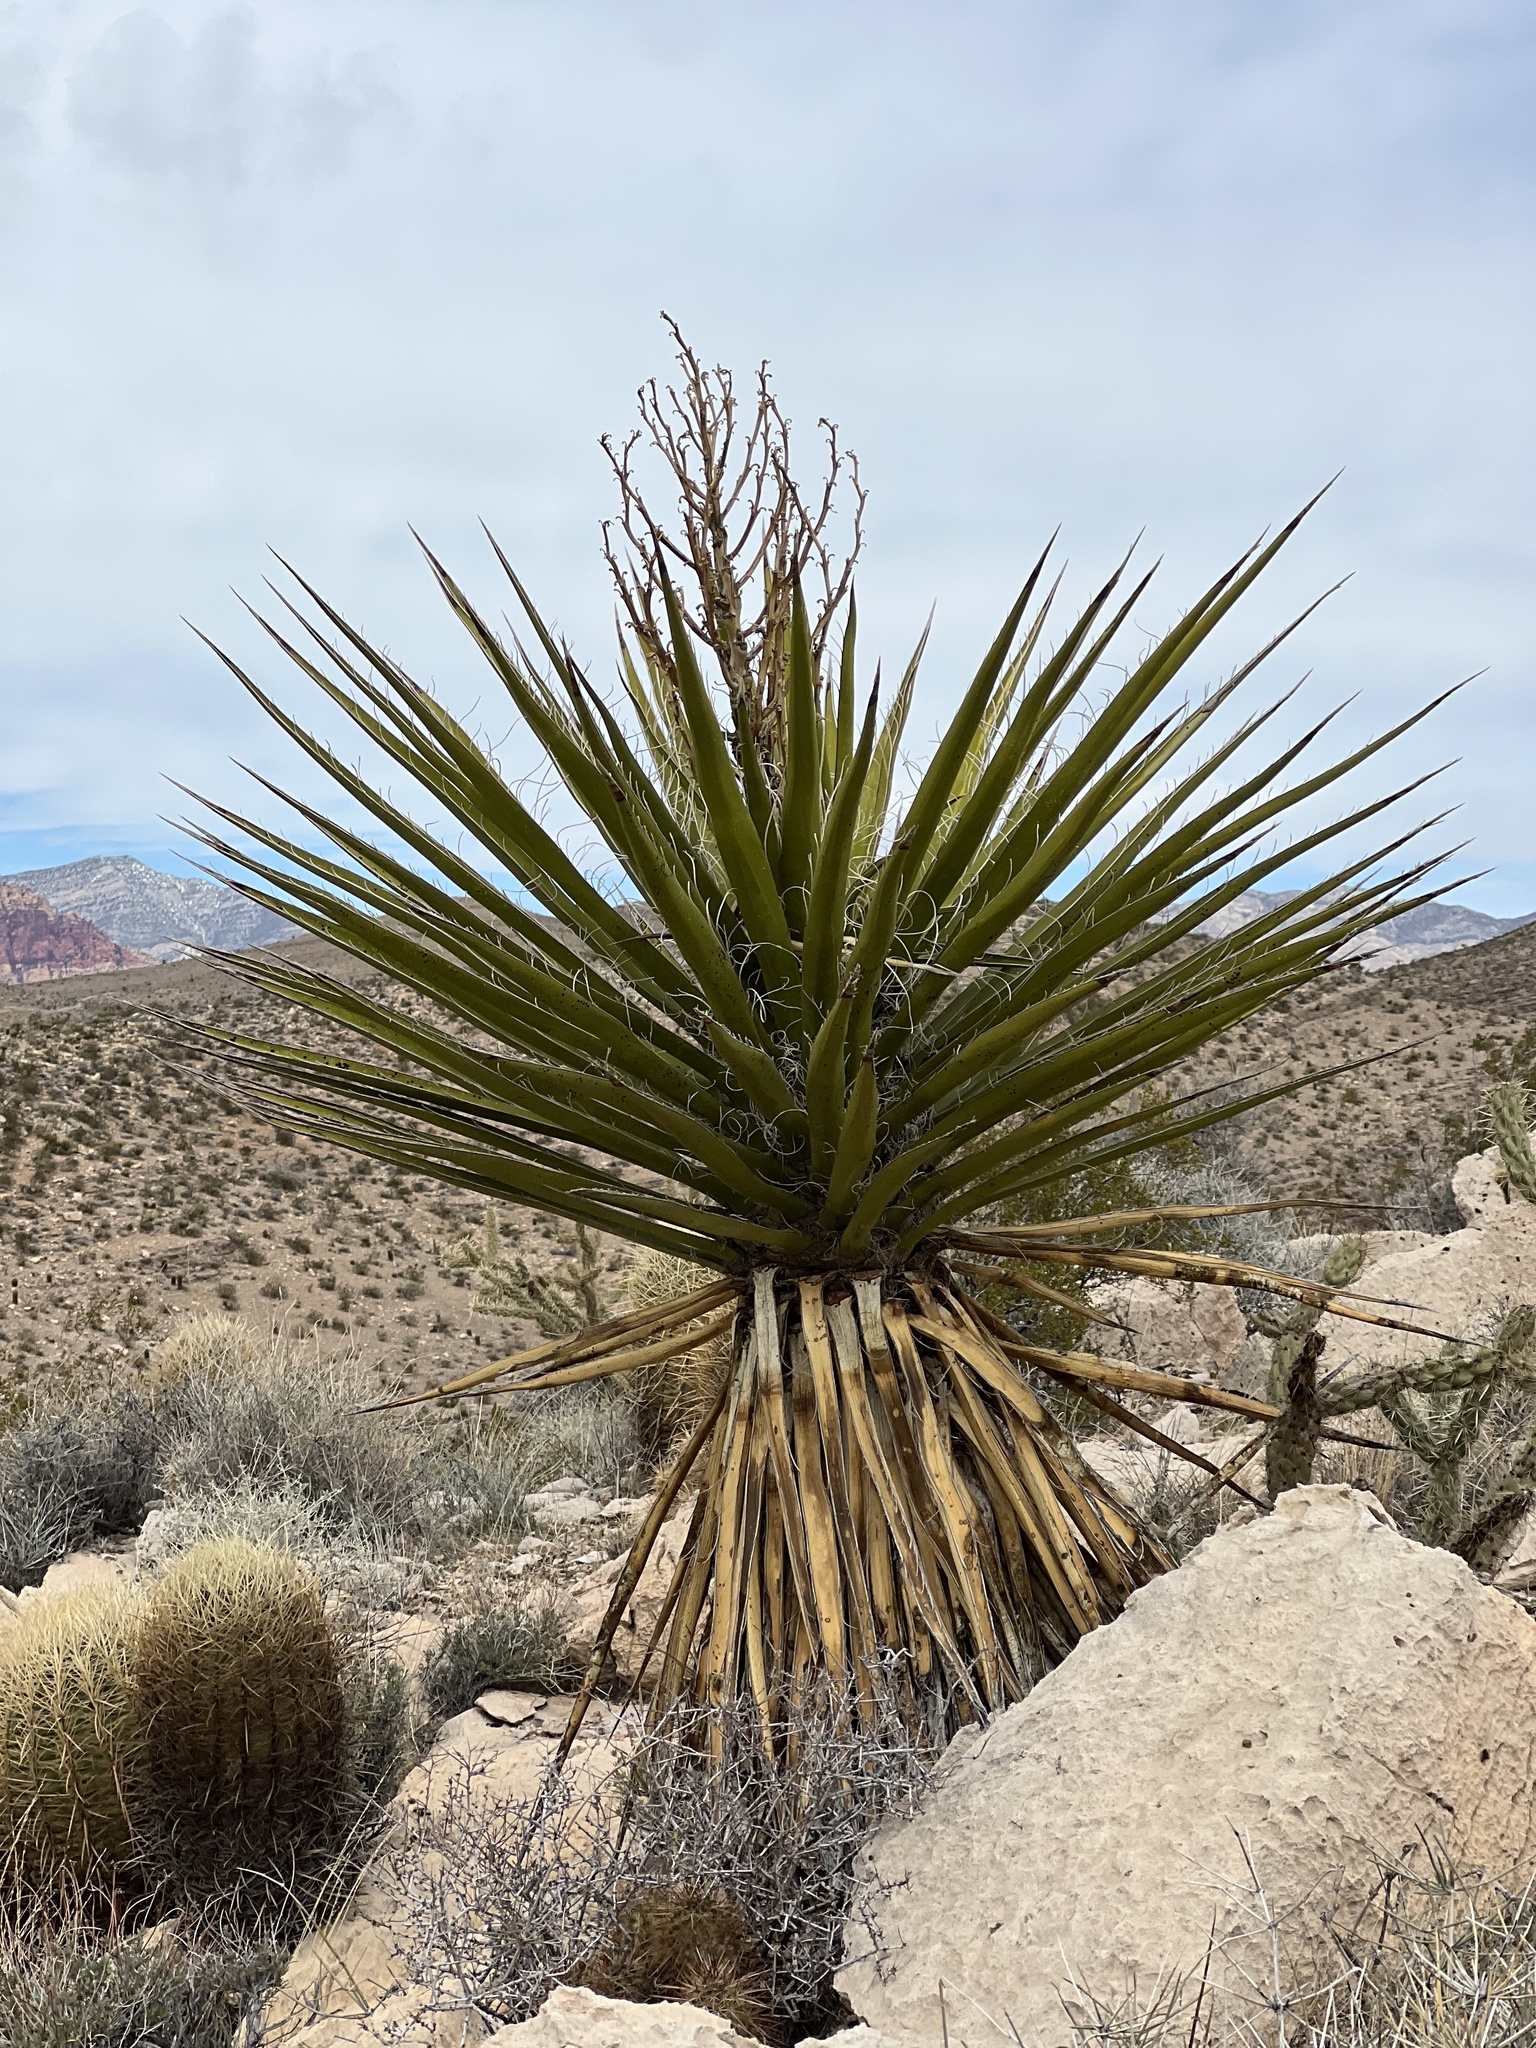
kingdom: Plantae
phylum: Tracheophyta
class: Liliopsida
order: Asparagales
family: Asparagaceae
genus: Yucca
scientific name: Yucca schidigera
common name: Mojave yucca
